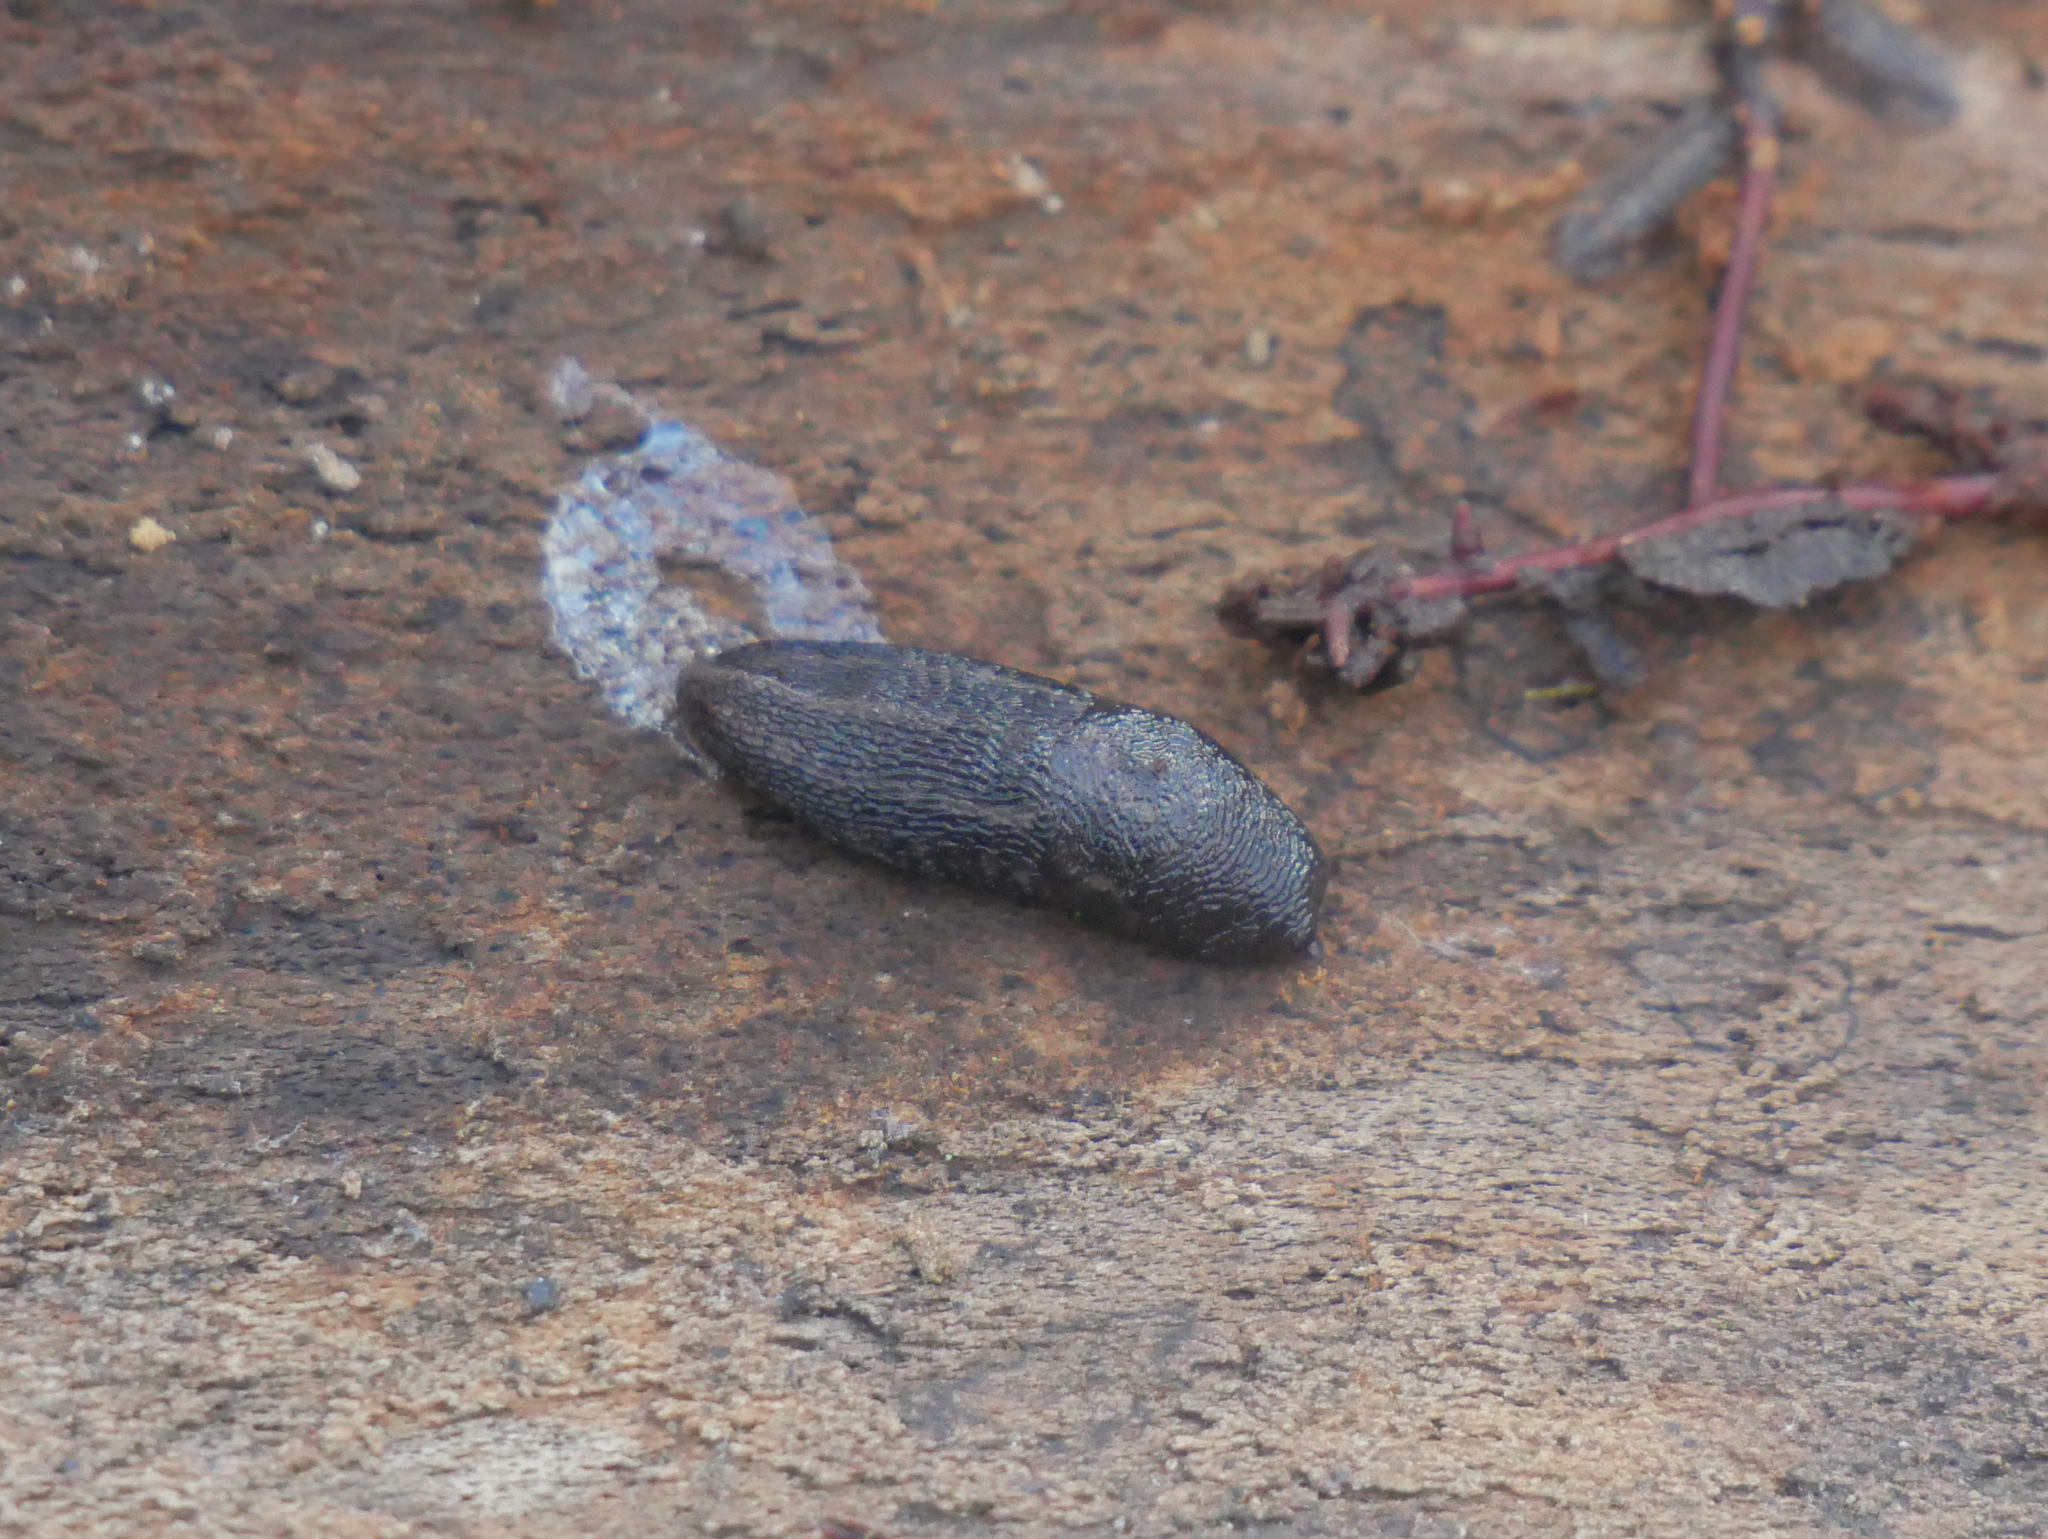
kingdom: Animalia
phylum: Mollusca
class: Gastropoda
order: Stylommatophora
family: Limacidae
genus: Limax
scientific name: Limax maximus
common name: Great grey slug
